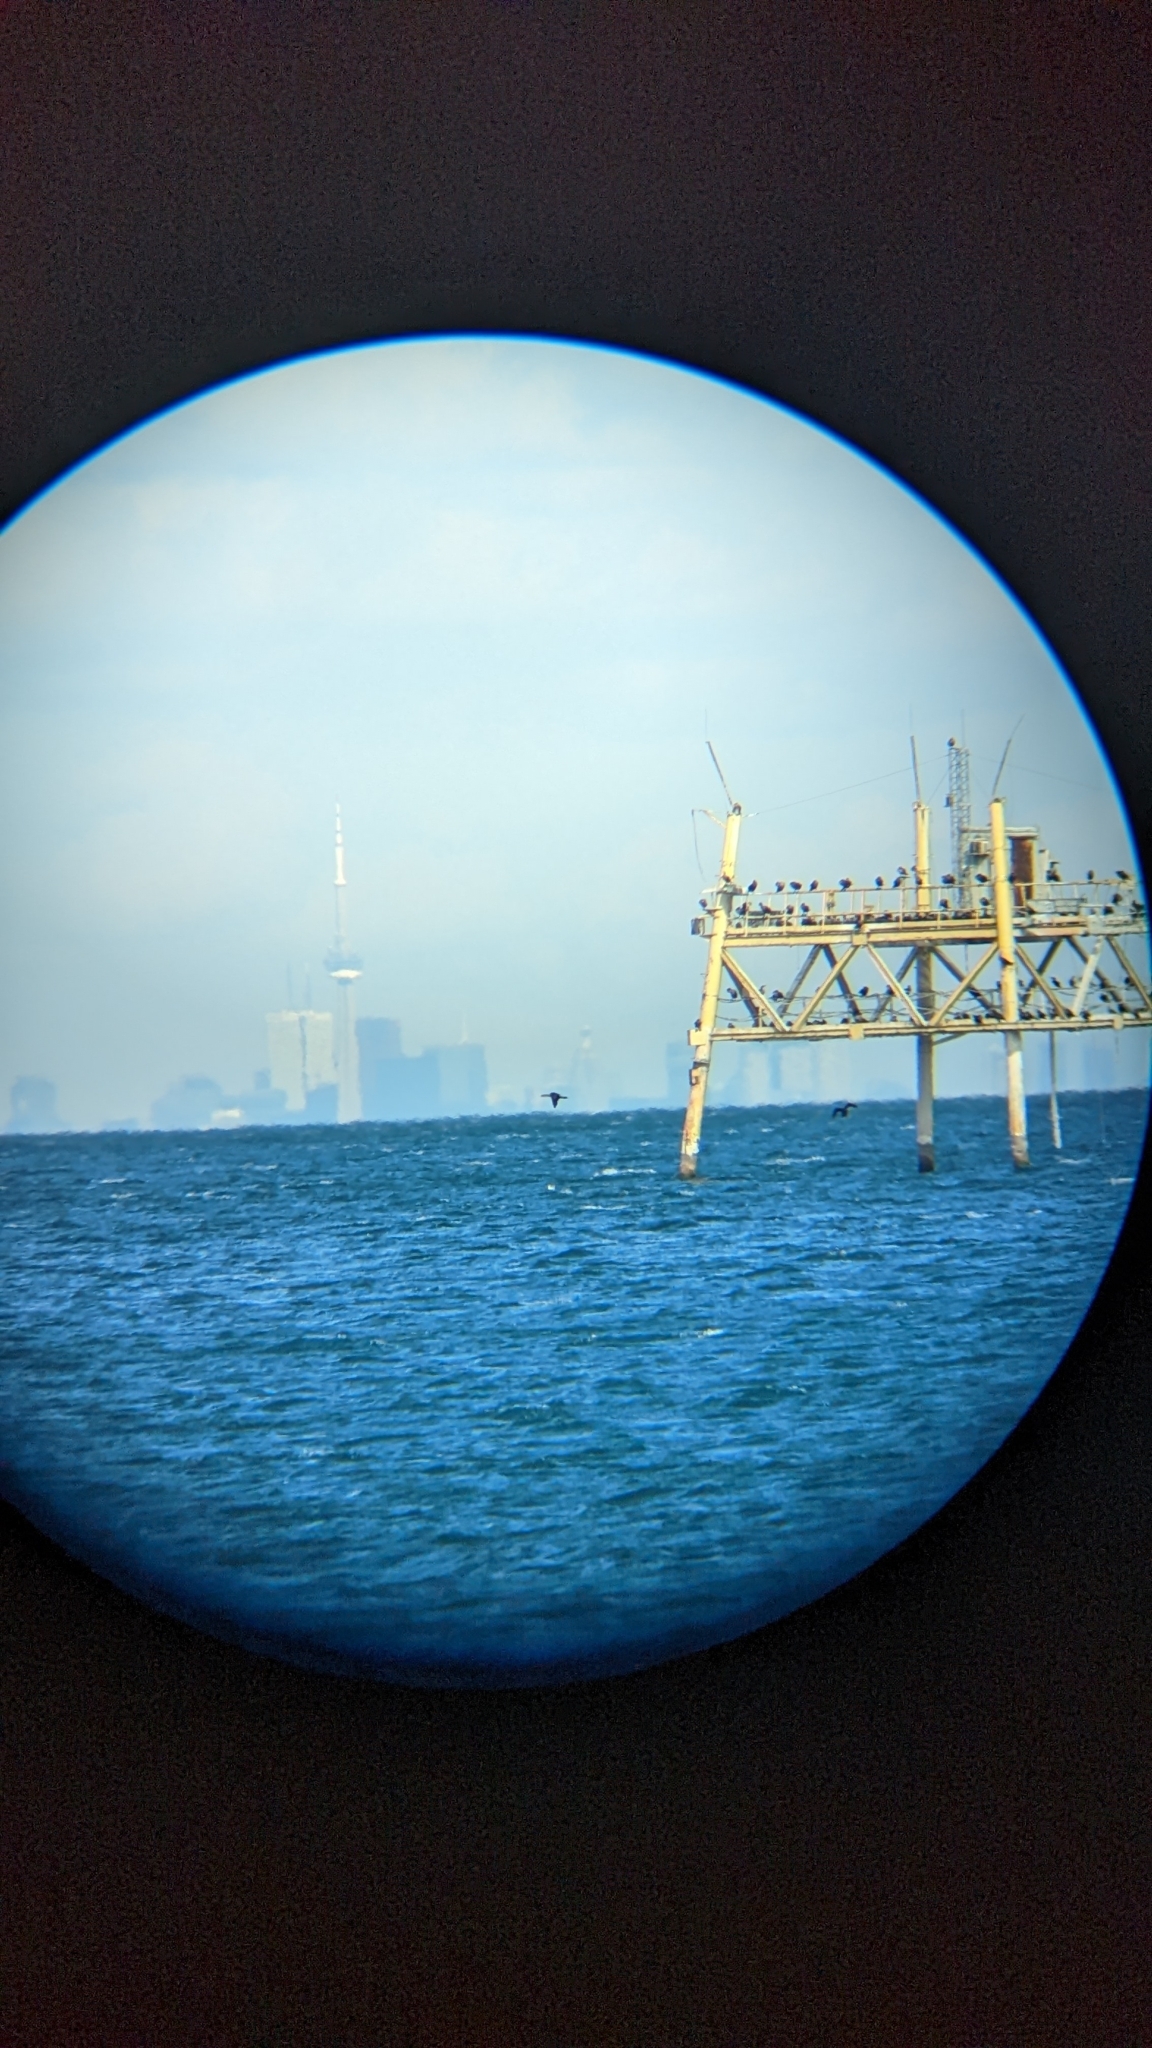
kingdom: Animalia
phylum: Chordata
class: Aves
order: Suliformes
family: Phalacrocoracidae
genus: Phalacrocorax
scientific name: Phalacrocorax auritus
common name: Double-crested cormorant
